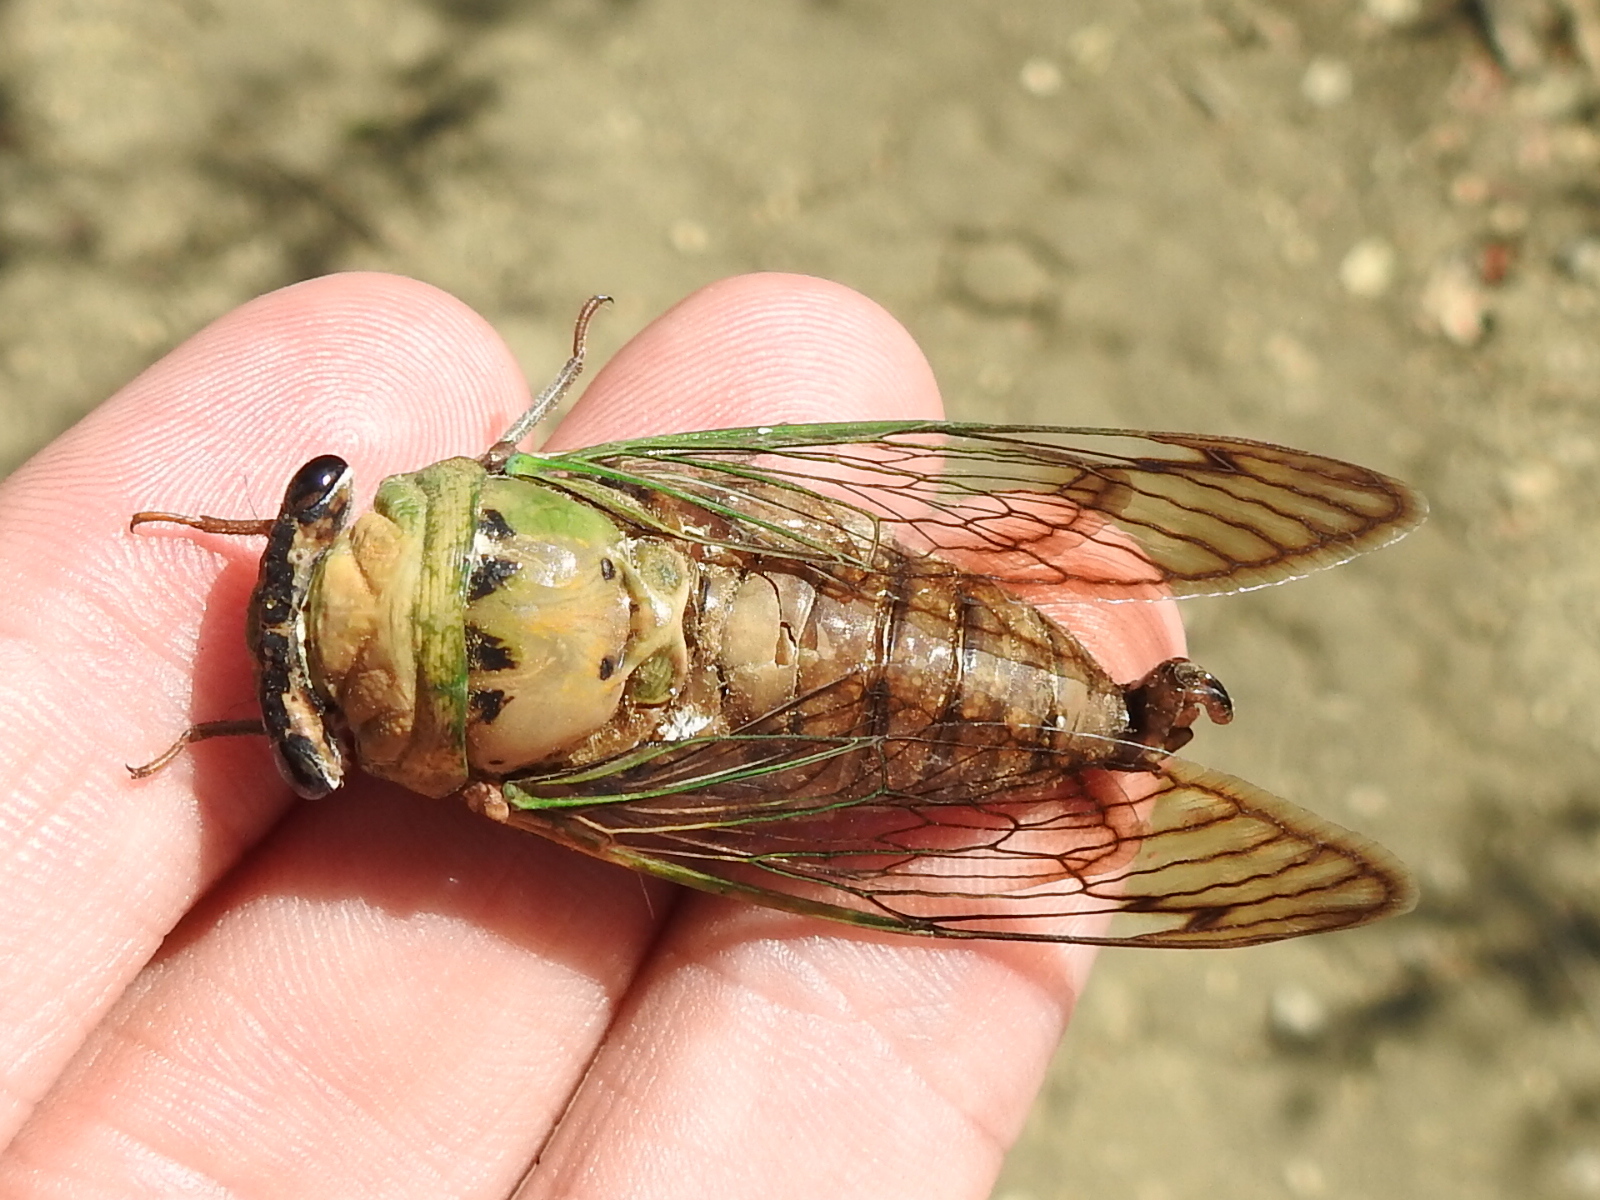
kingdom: Animalia
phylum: Arthropoda
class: Insecta
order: Hemiptera
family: Cicadidae
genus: Neotibicen
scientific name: Neotibicen superbus
